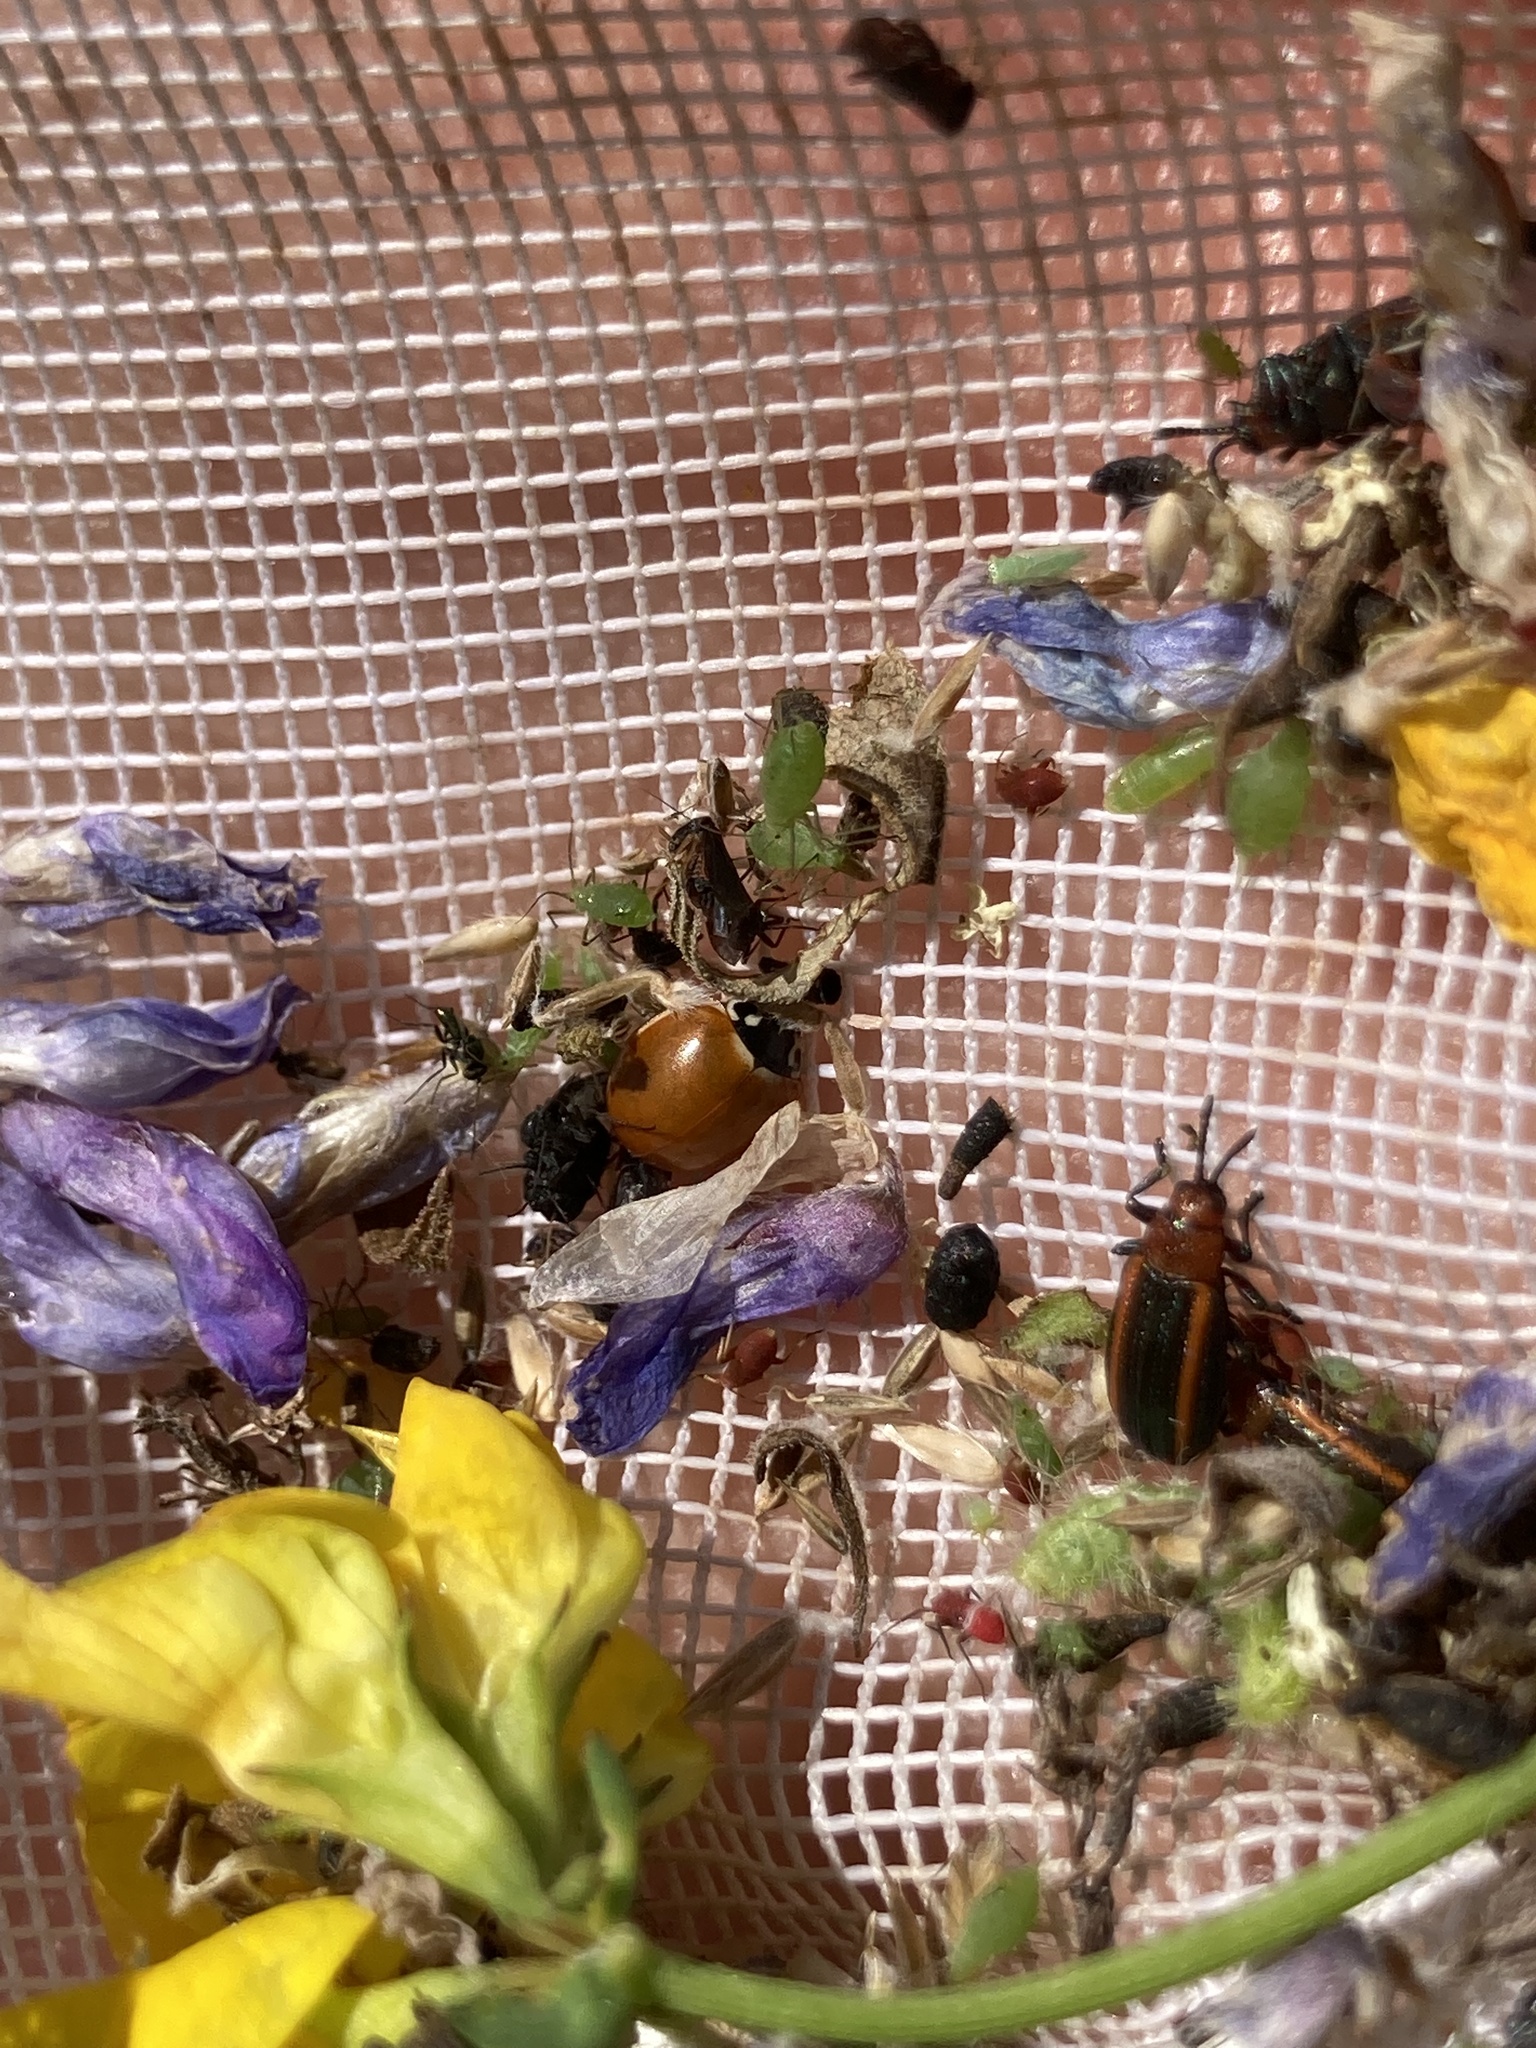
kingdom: Animalia
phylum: Arthropoda
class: Insecta
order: Coleoptera
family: Coccinellidae
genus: Cycloneda
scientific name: Cycloneda munda
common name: Polished lady beetle
